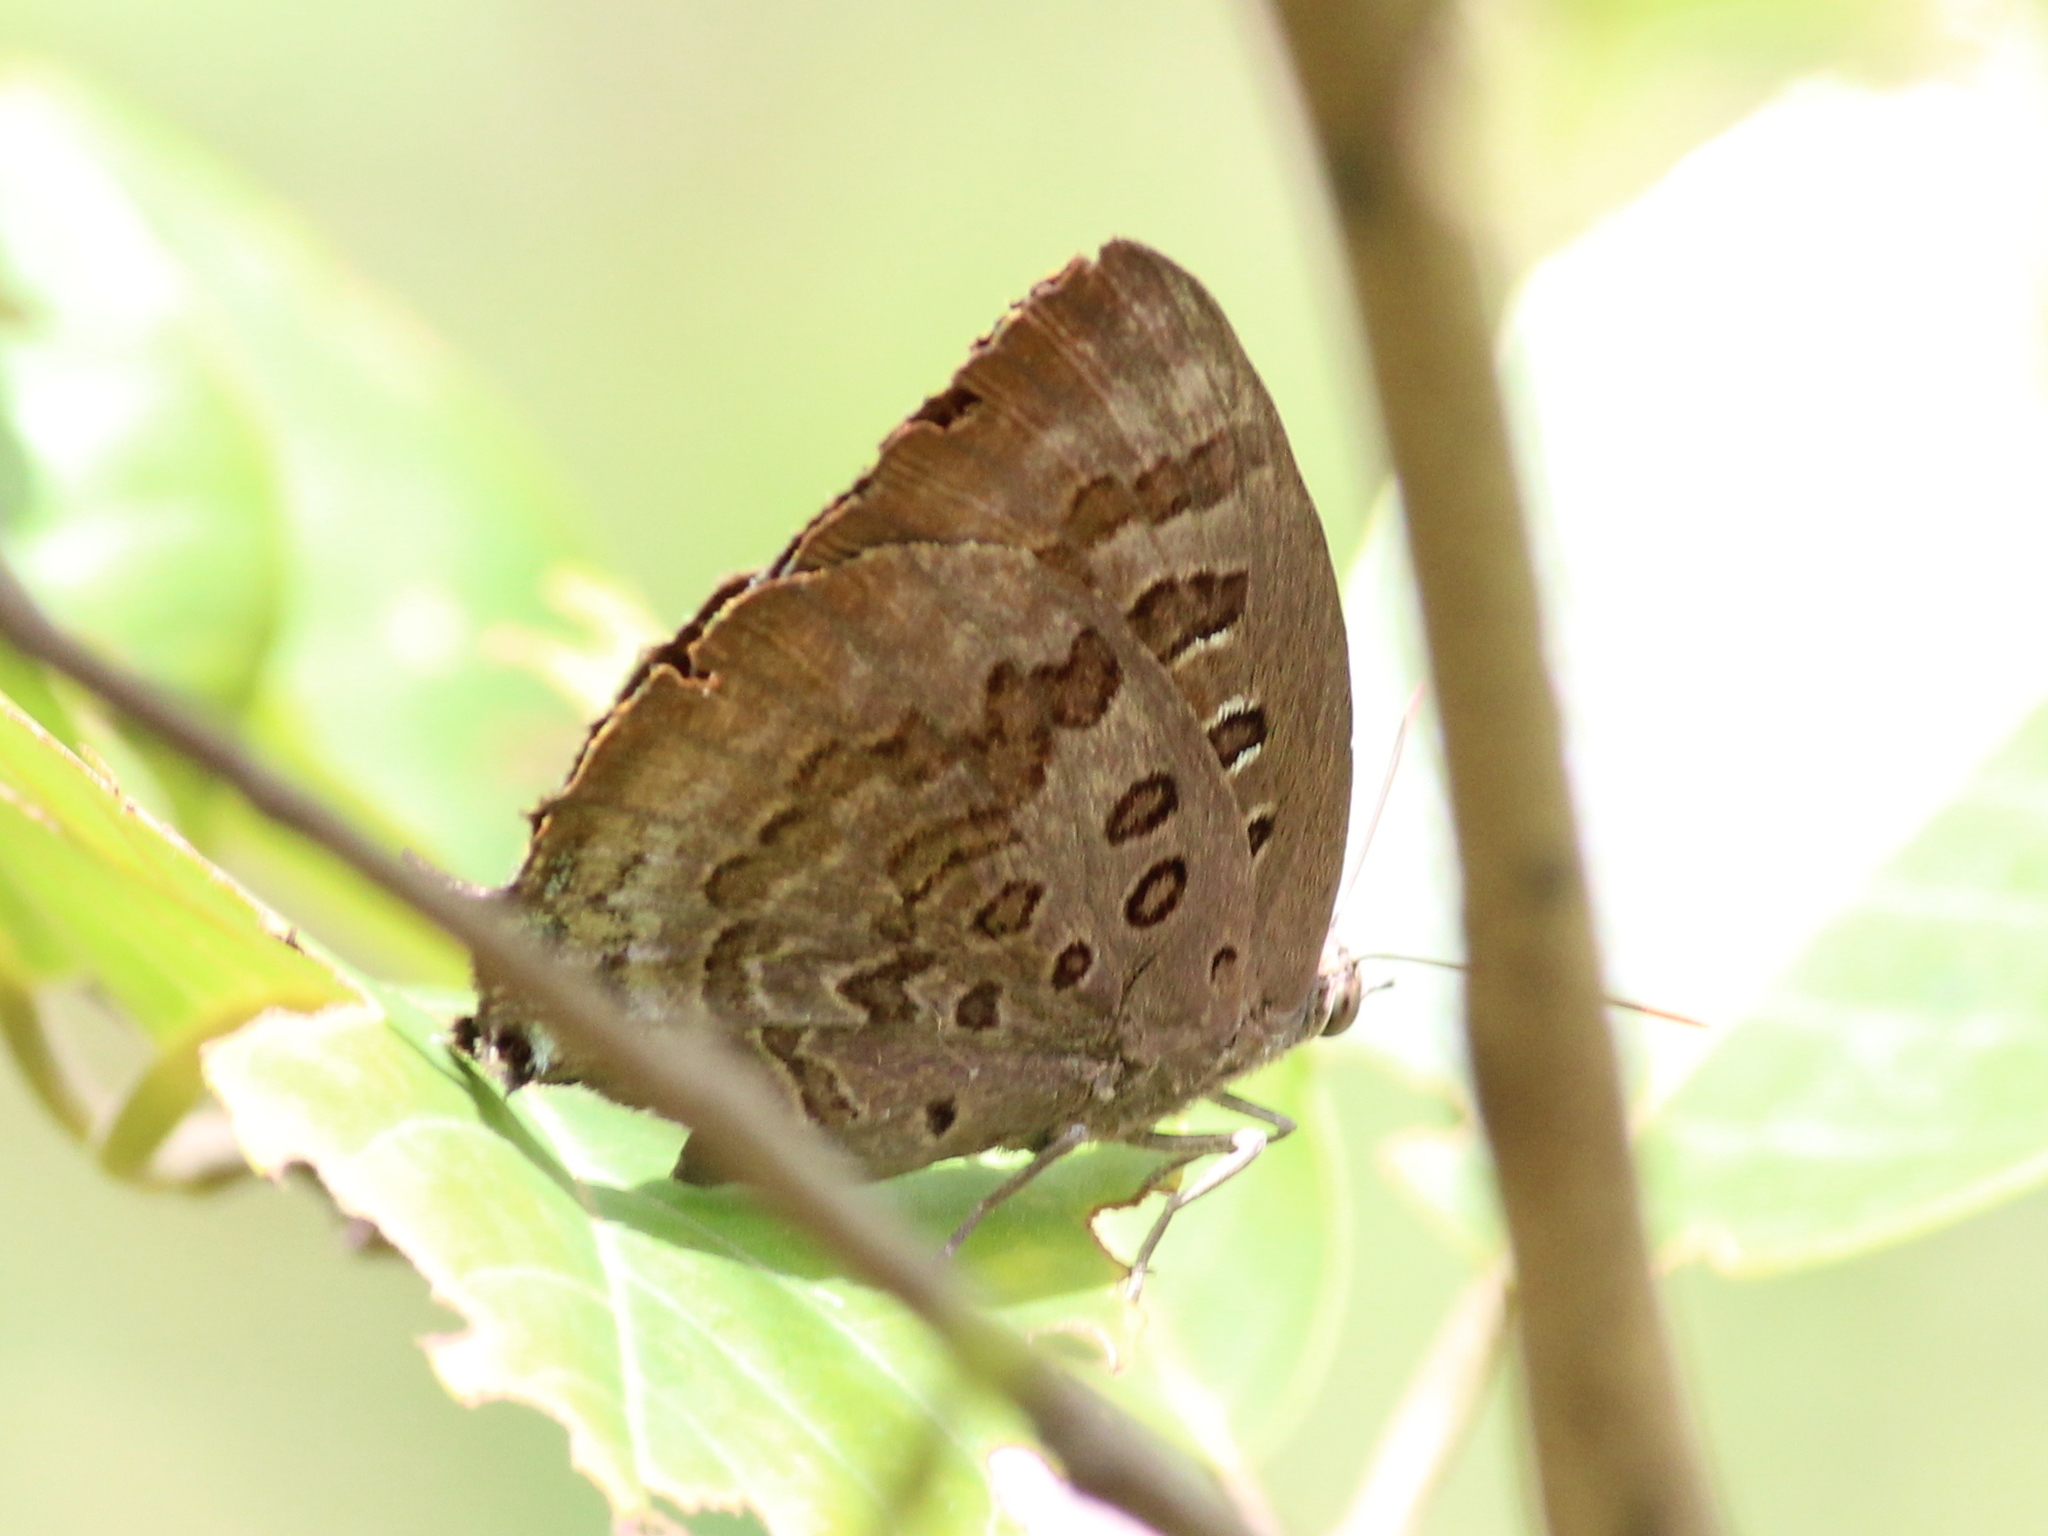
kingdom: Animalia
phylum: Arthropoda
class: Insecta
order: Lepidoptera
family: Lycaenidae
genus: Arhopala
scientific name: Arhopala amantes
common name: Large oakblue
